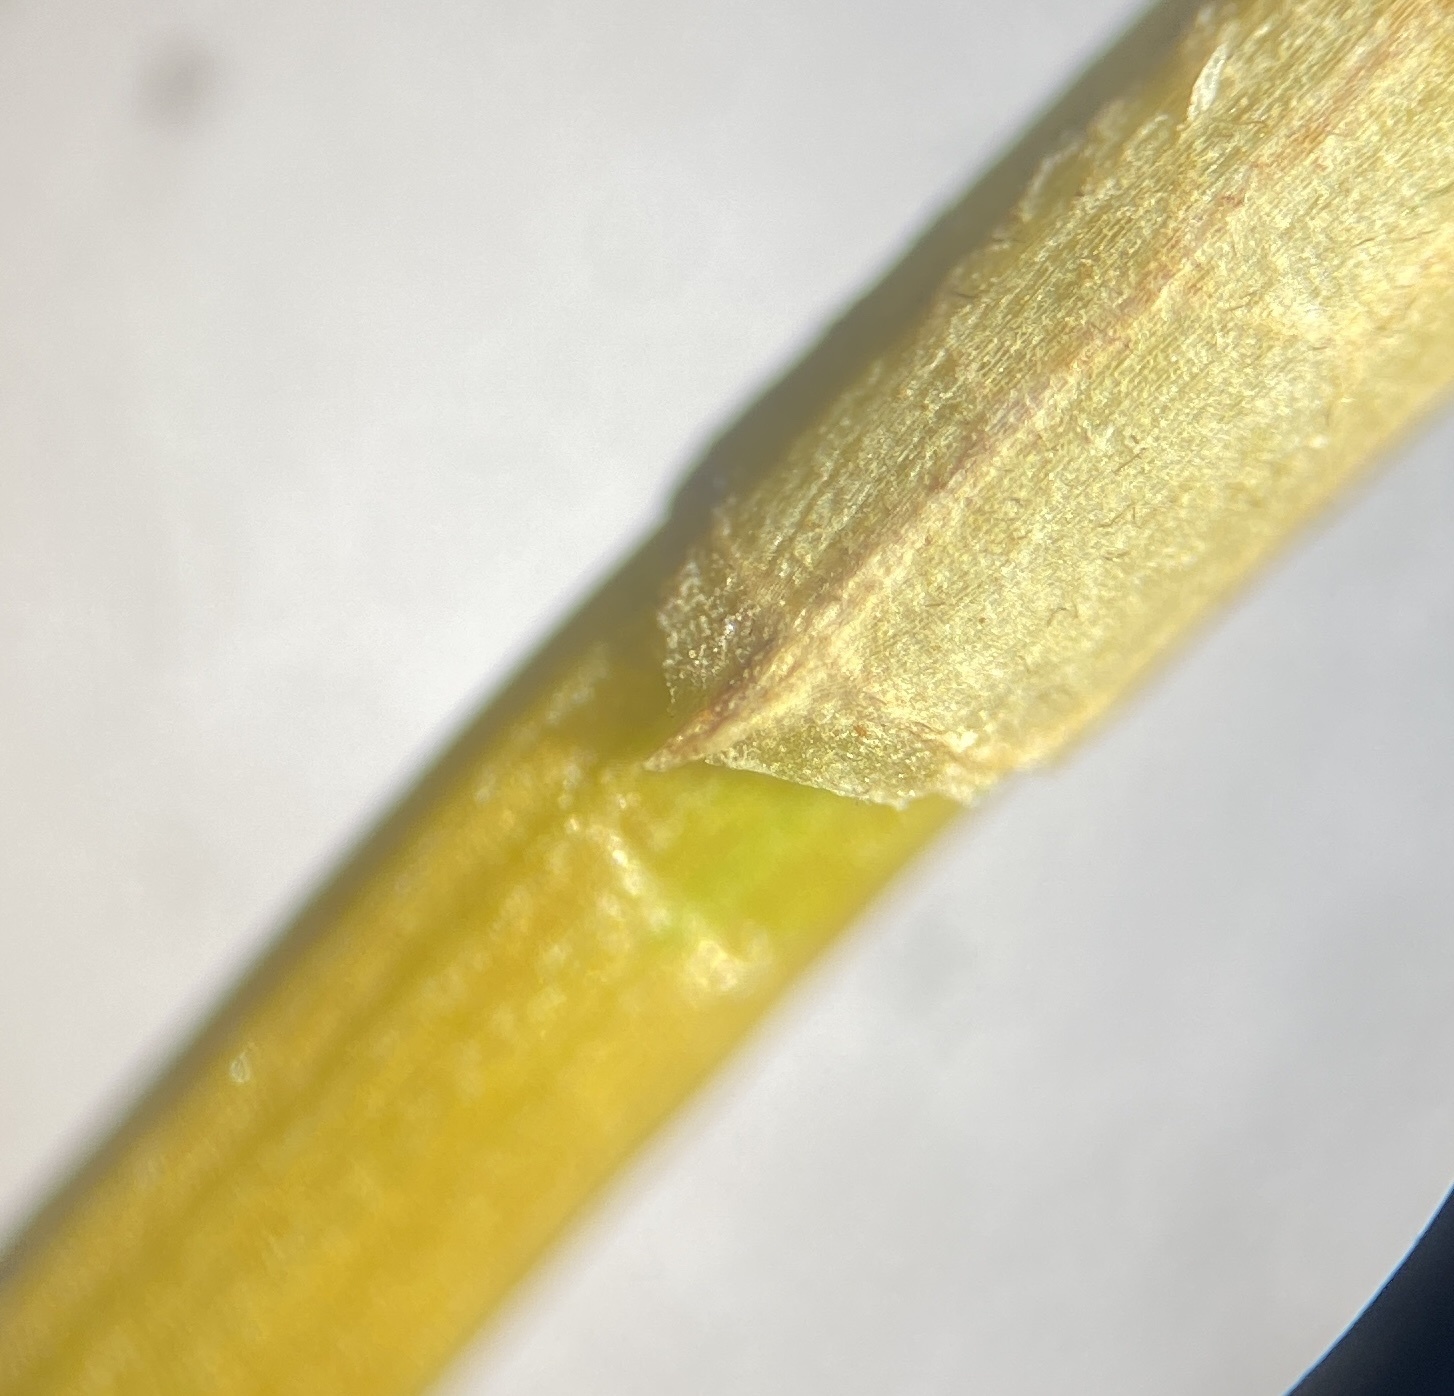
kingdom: Plantae
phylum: Tracheophyta
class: Liliopsida
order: Poales
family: Cyperaceae
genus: Eleocharis
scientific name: Eleocharis engelmannii
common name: Engelmann's spikerush
